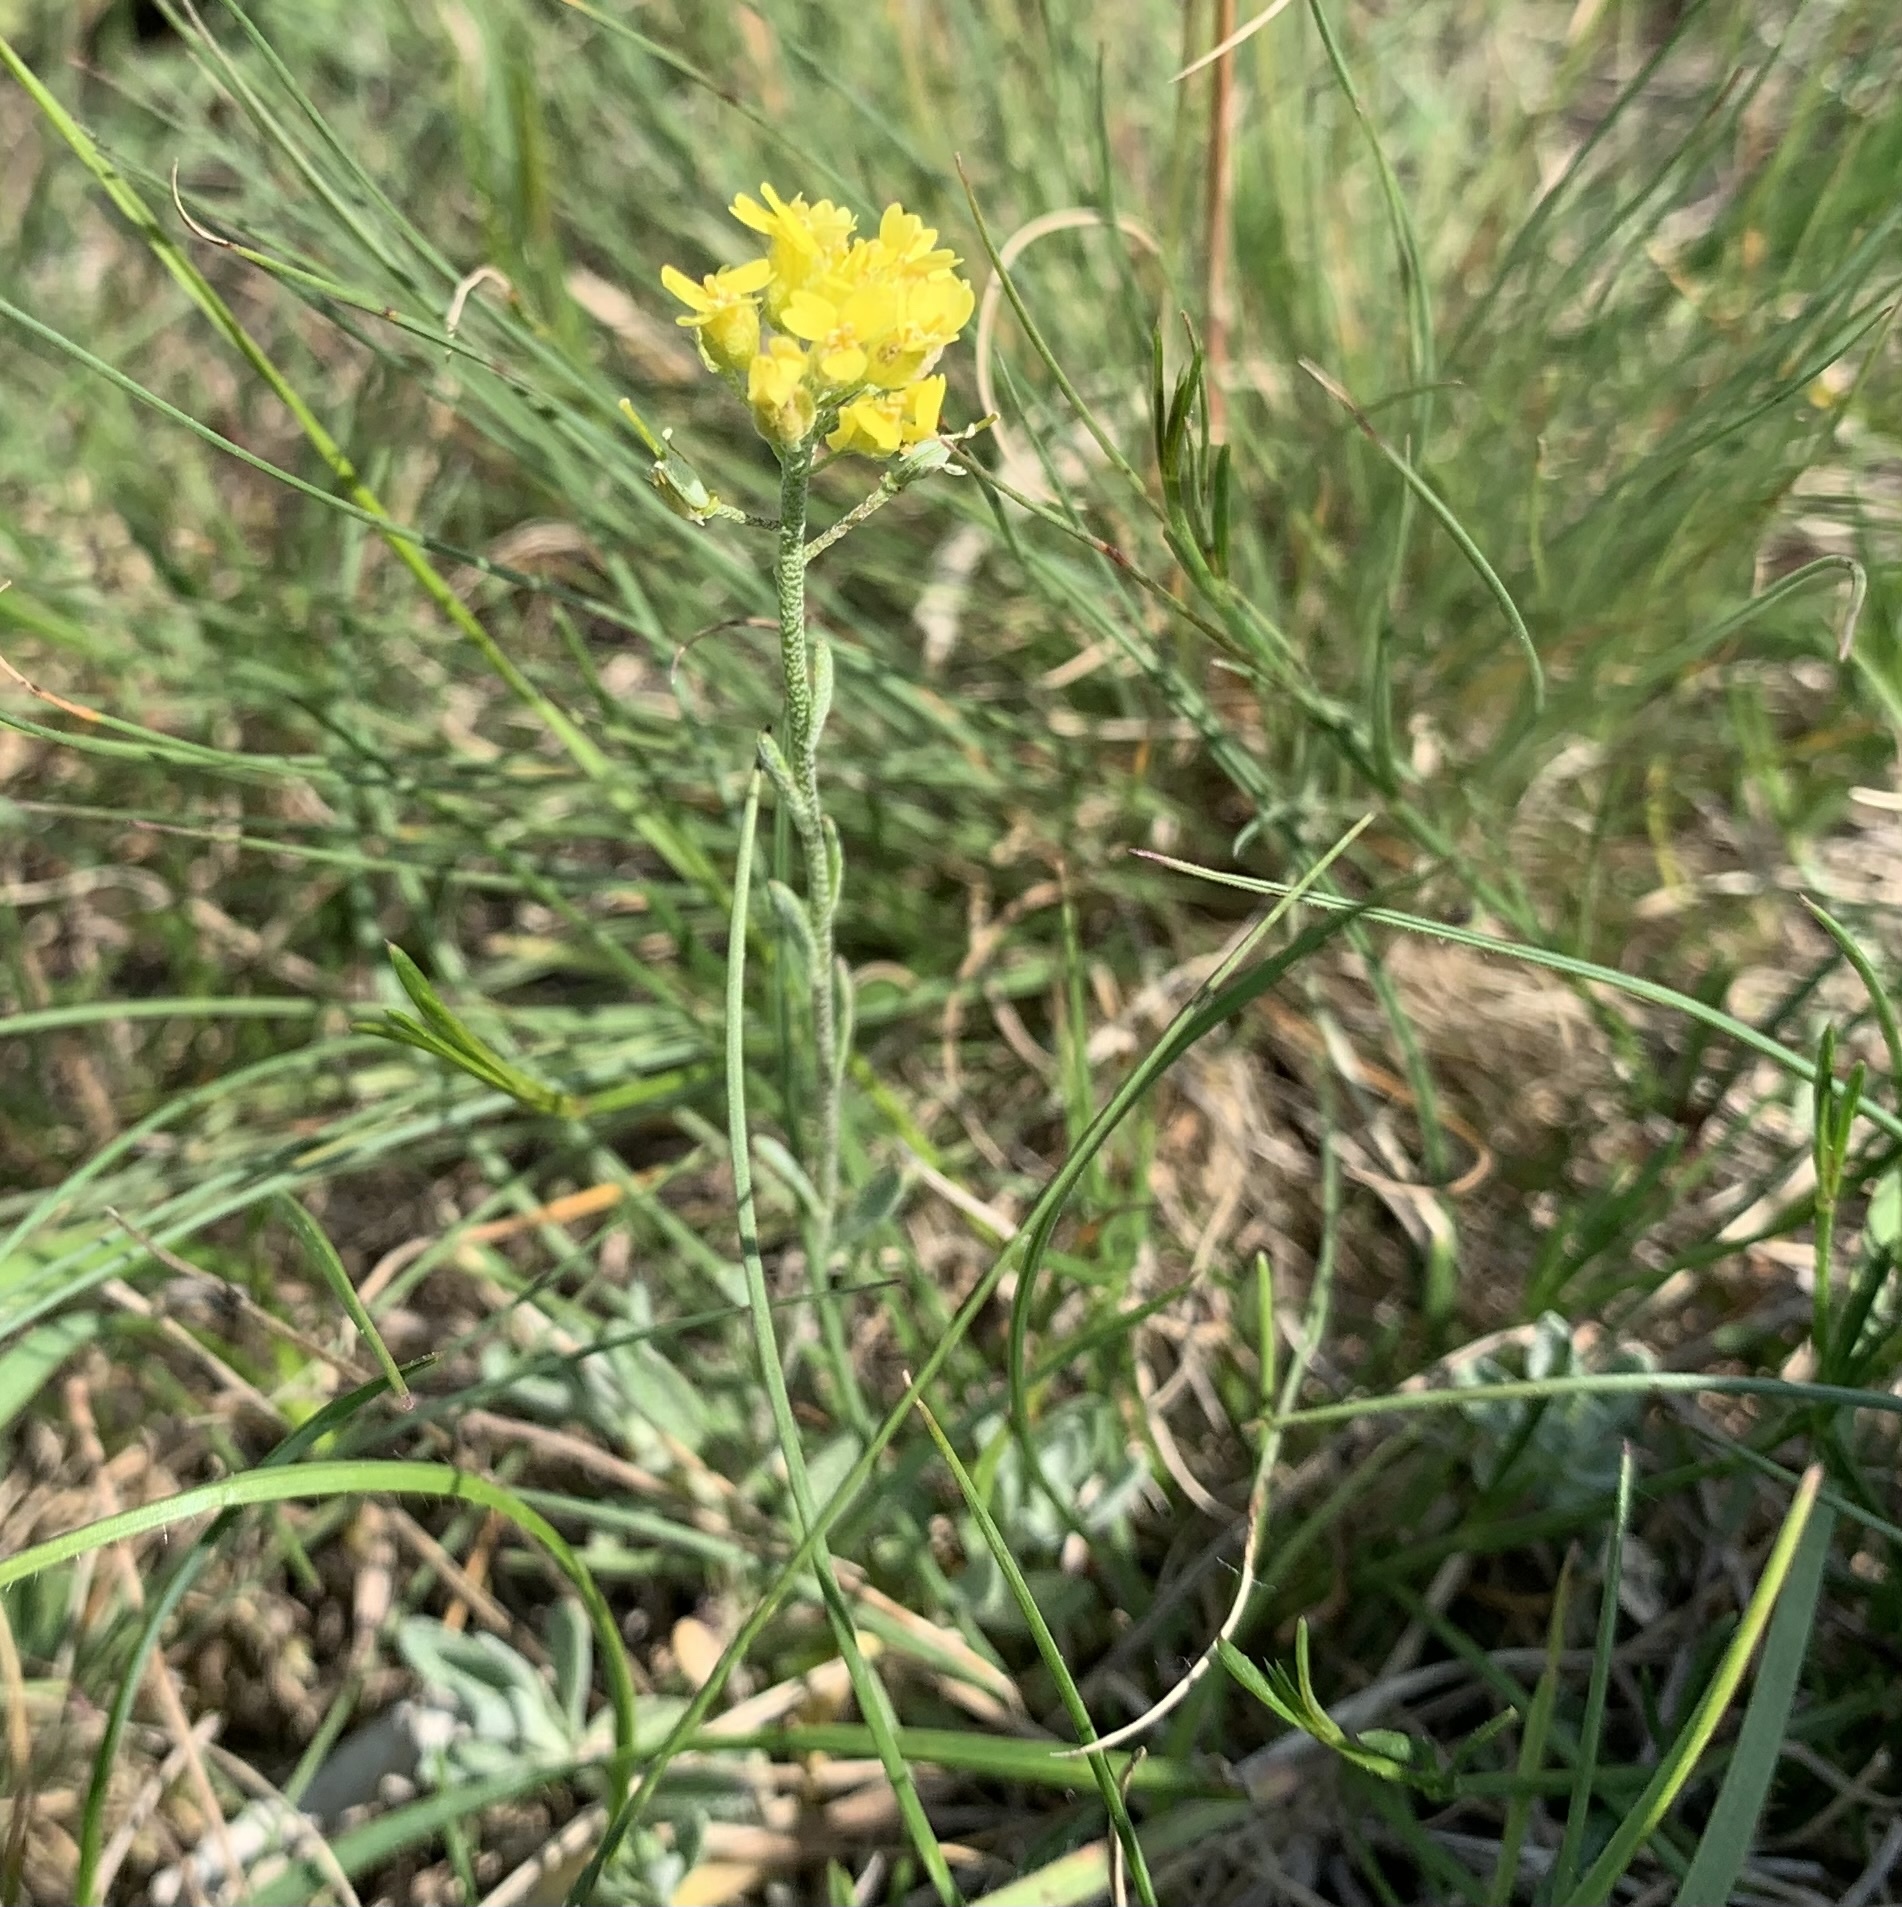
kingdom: Plantae
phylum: Tracheophyta
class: Magnoliopsida
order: Brassicales
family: Brassicaceae
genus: Alyssum
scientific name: Alyssum gmelinii
